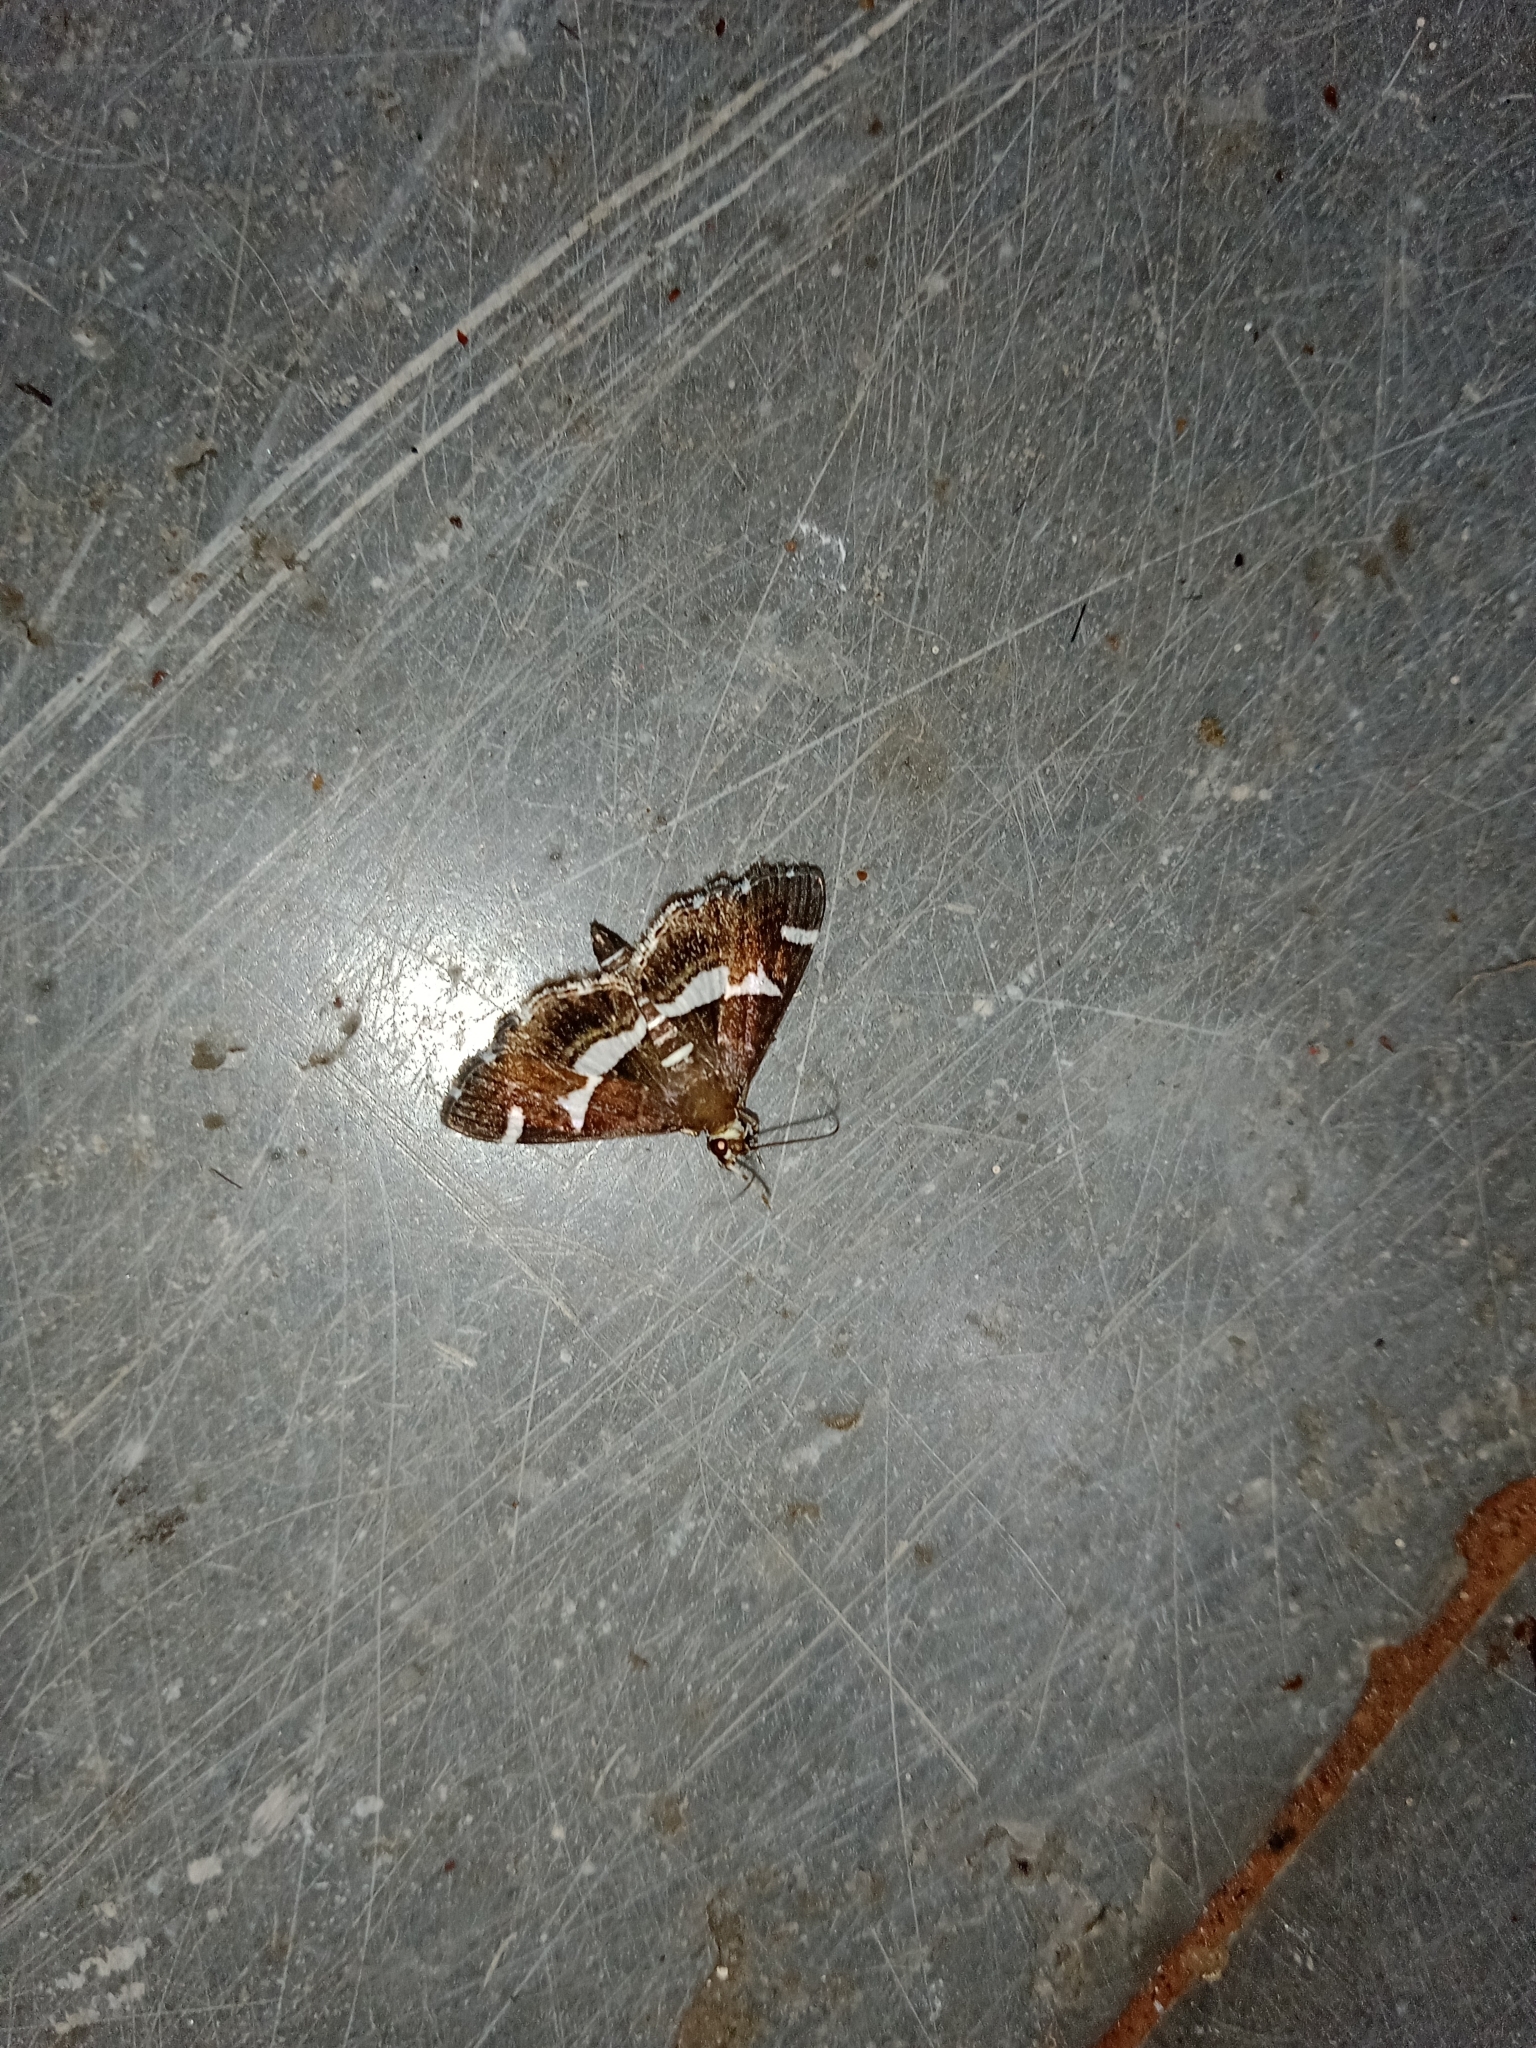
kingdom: Animalia
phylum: Arthropoda
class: Insecta
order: Lepidoptera
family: Crambidae
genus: Spoladea
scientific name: Spoladea recurvalis
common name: Beet webworm moth
